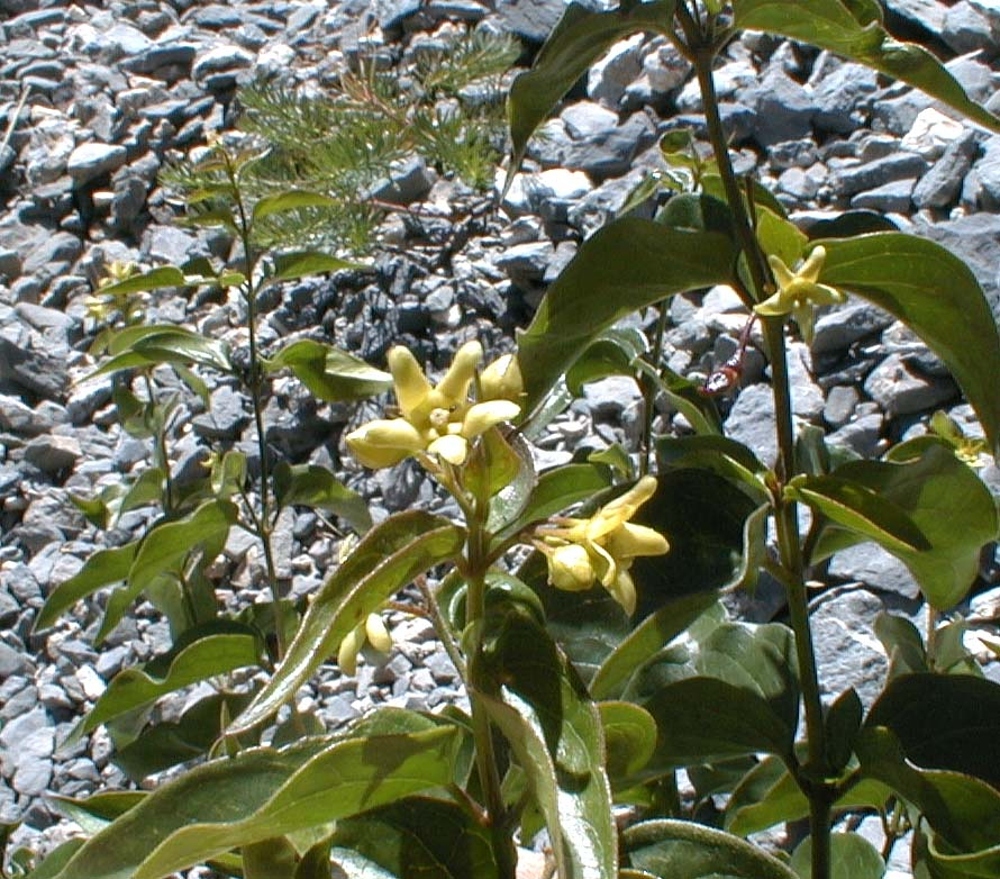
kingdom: Plantae
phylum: Tracheophyta
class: Magnoliopsida
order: Gentianales
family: Apocynaceae
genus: Vincetoxicum
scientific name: Vincetoxicum hirundinaria
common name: White swallowwort
